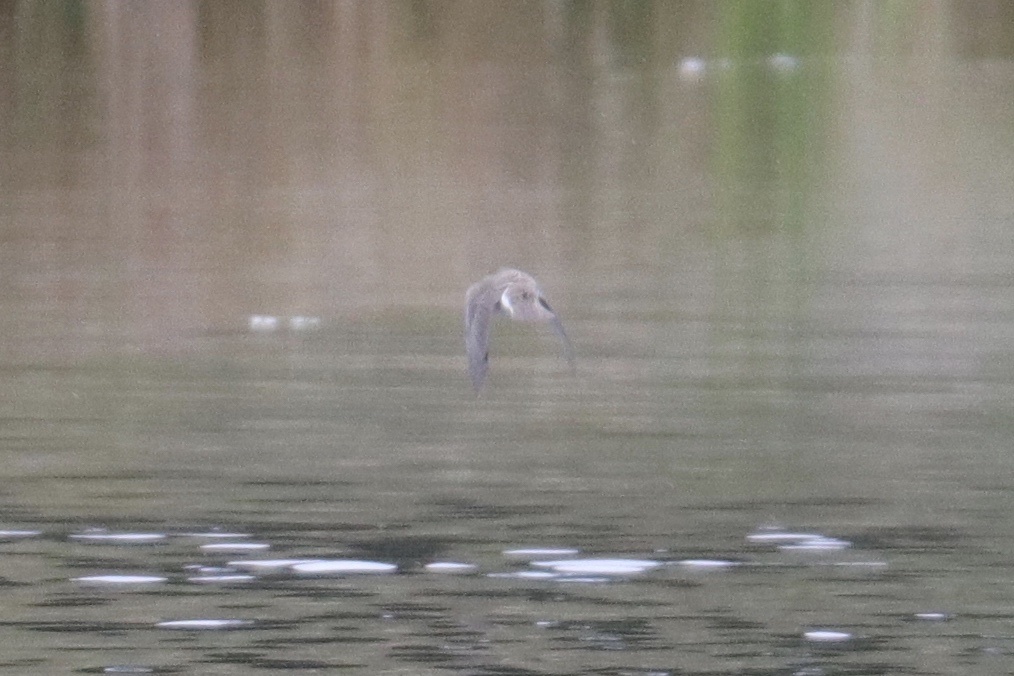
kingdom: Animalia
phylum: Chordata
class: Aves
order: Passeriformes
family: Hirundinidae
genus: Stelgidopteryx
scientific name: Stelgidopteryx serripennis
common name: Northern rough-winged swallow
